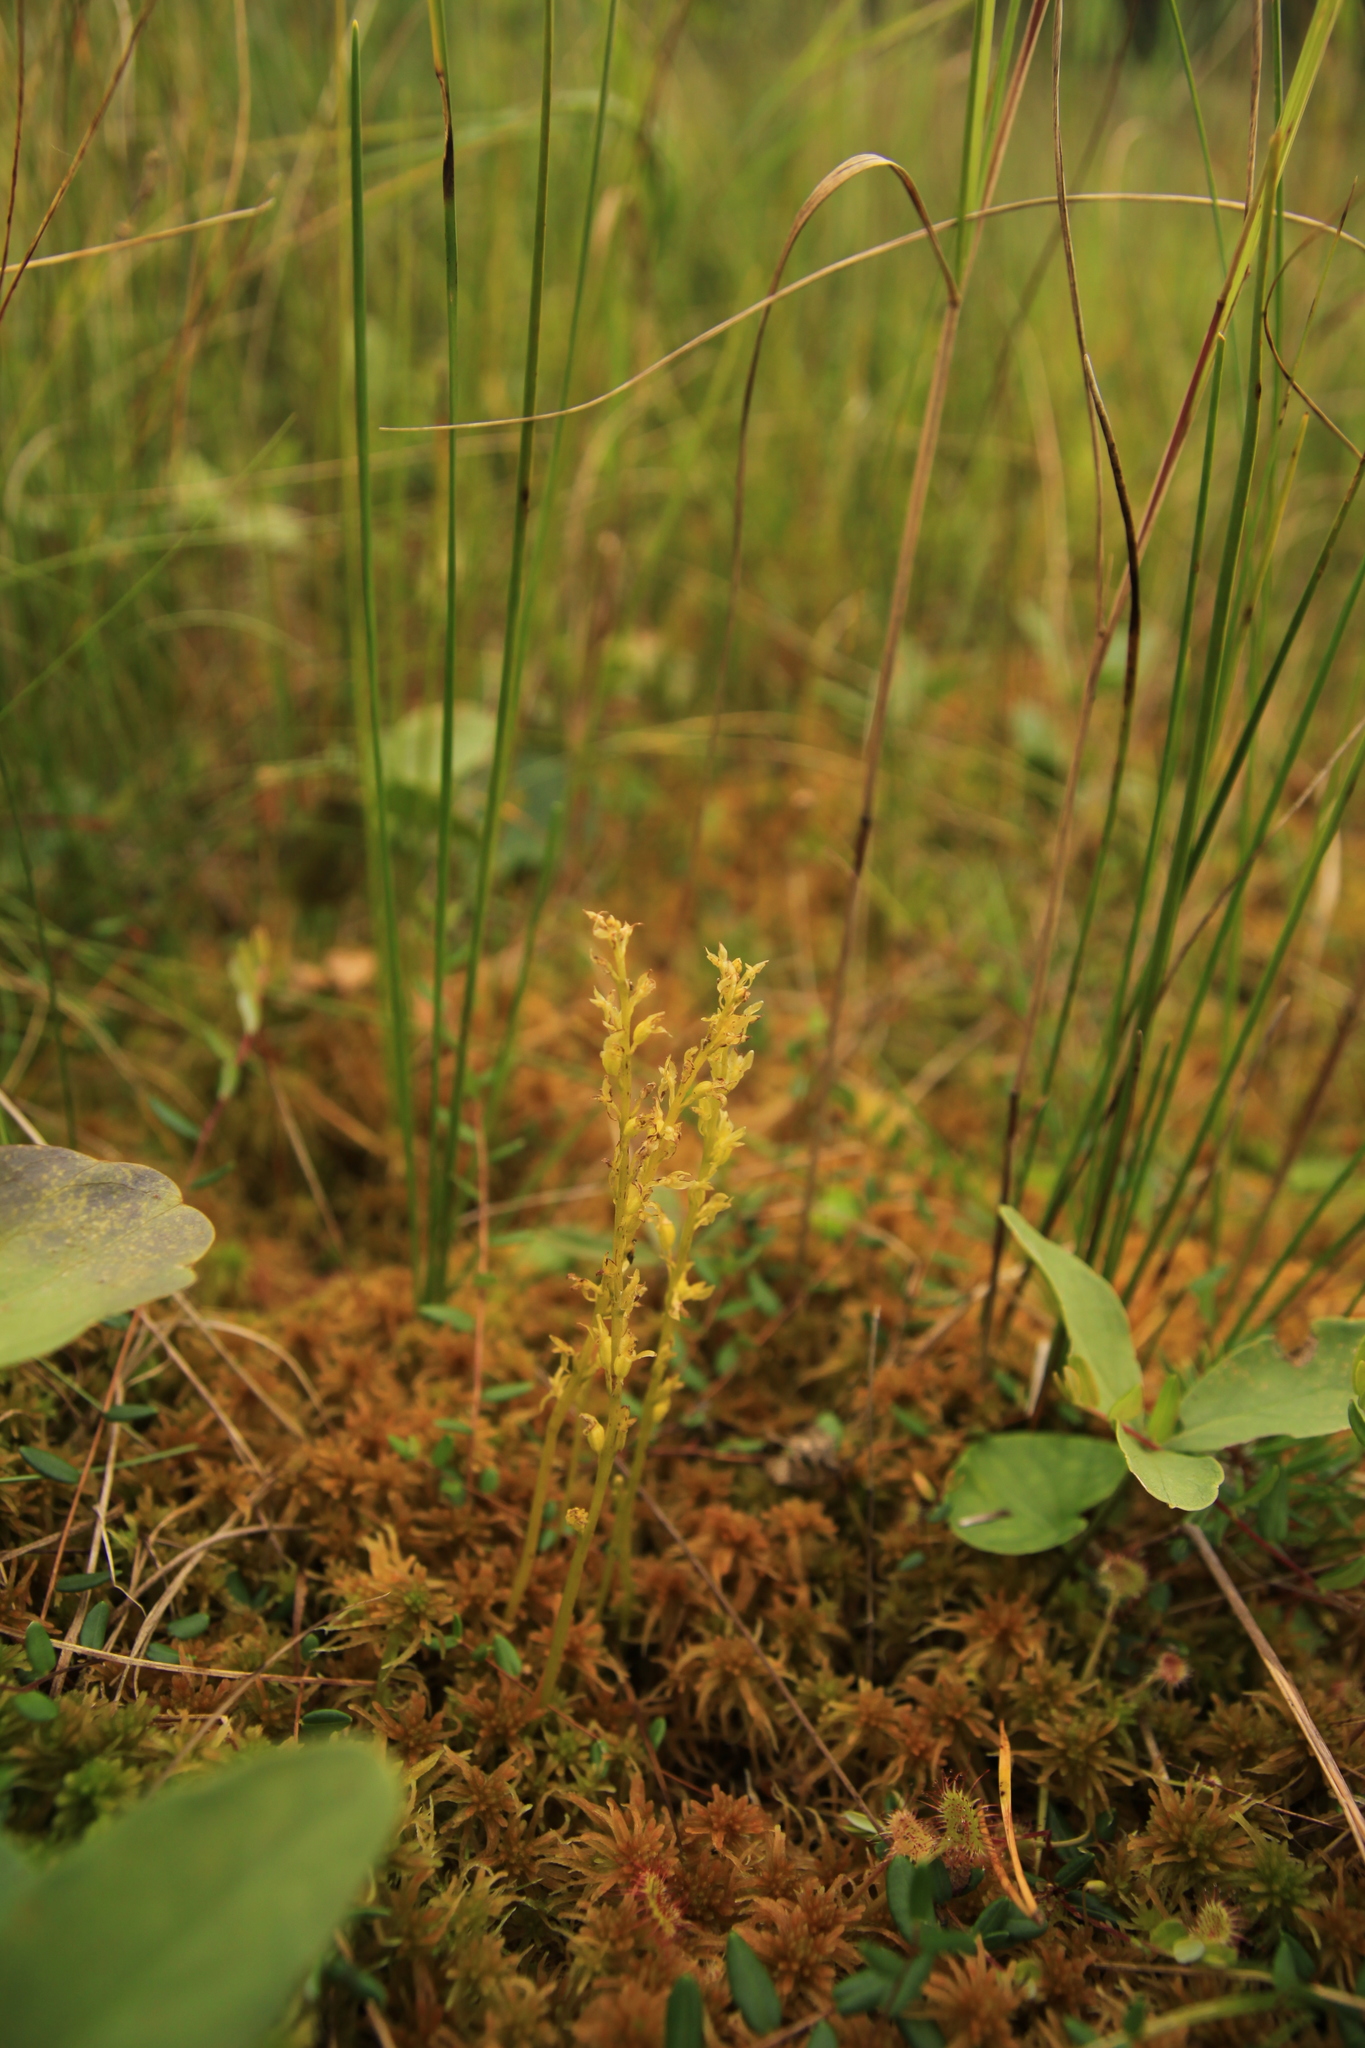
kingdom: Plantae
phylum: Tracheophyta
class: Liliopsida
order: Asparagales
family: Orchidaceae
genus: Hammarbya
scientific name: Hammarbya paludosa
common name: Bog orchid
